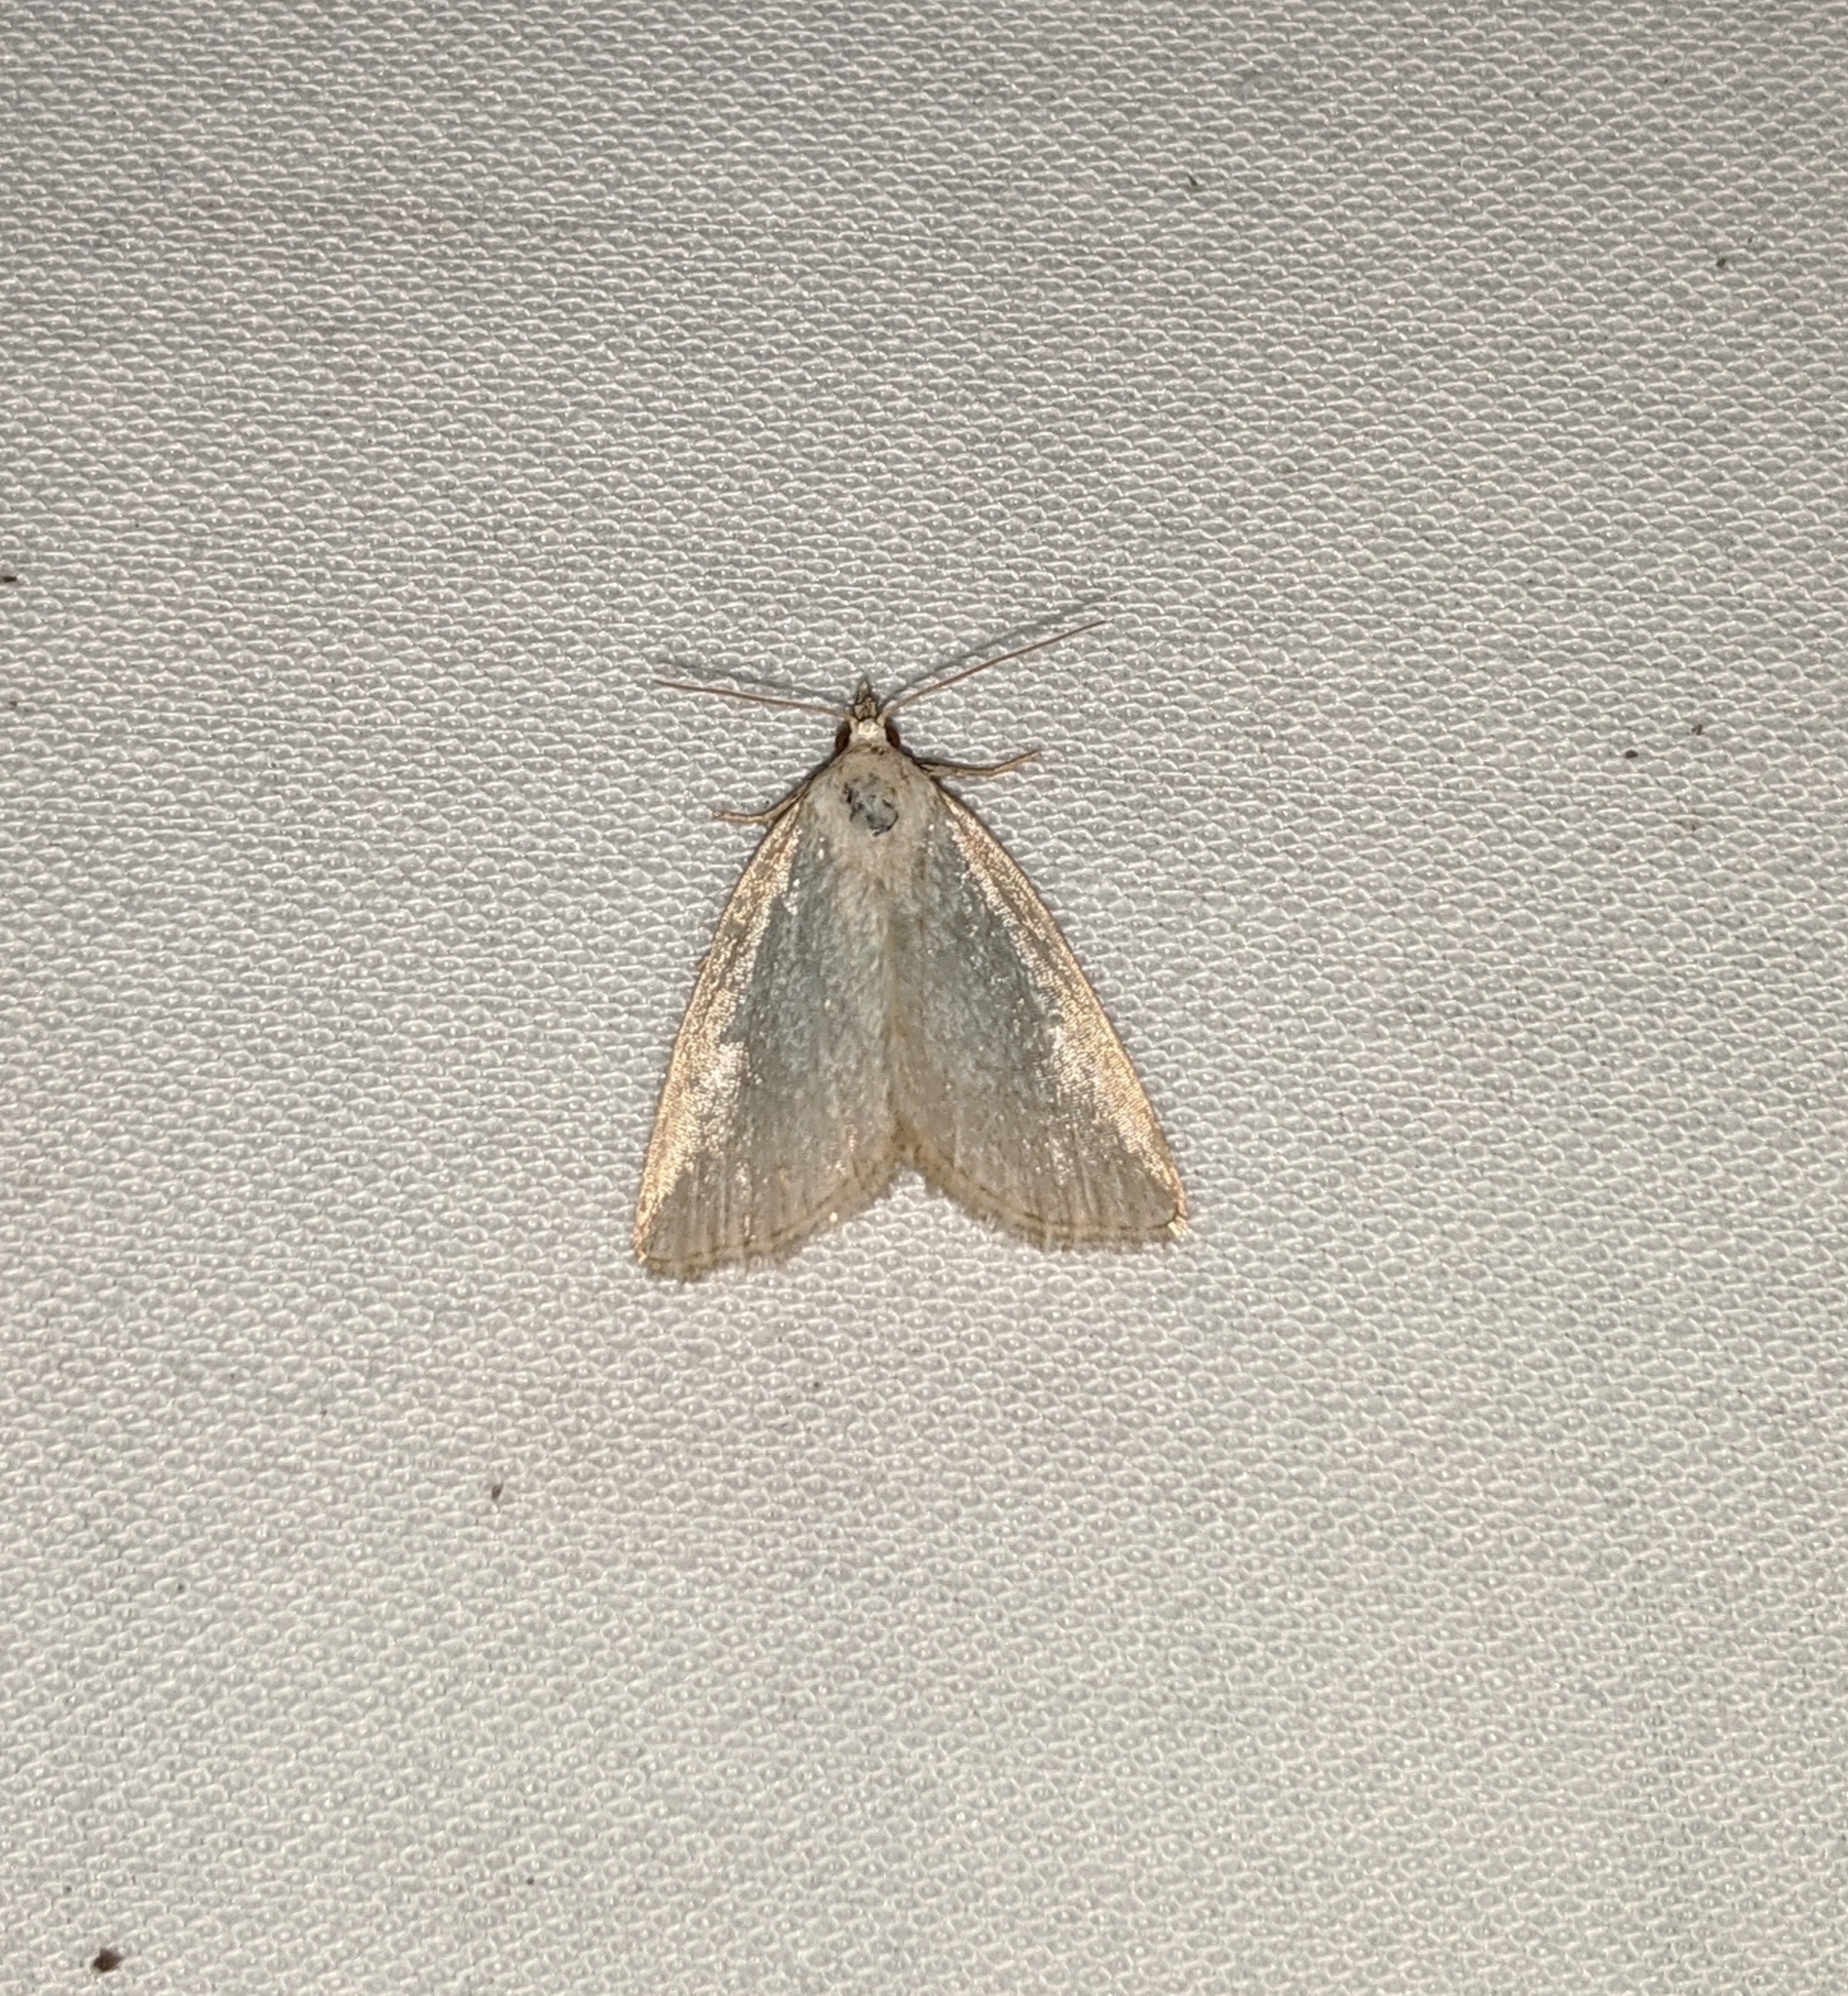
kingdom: Animalia
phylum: Arthropoda
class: Insecta
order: Lepidoptera
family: Noctuidae
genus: Protodeltote
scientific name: Protodeltote albidula
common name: Pale glyph
